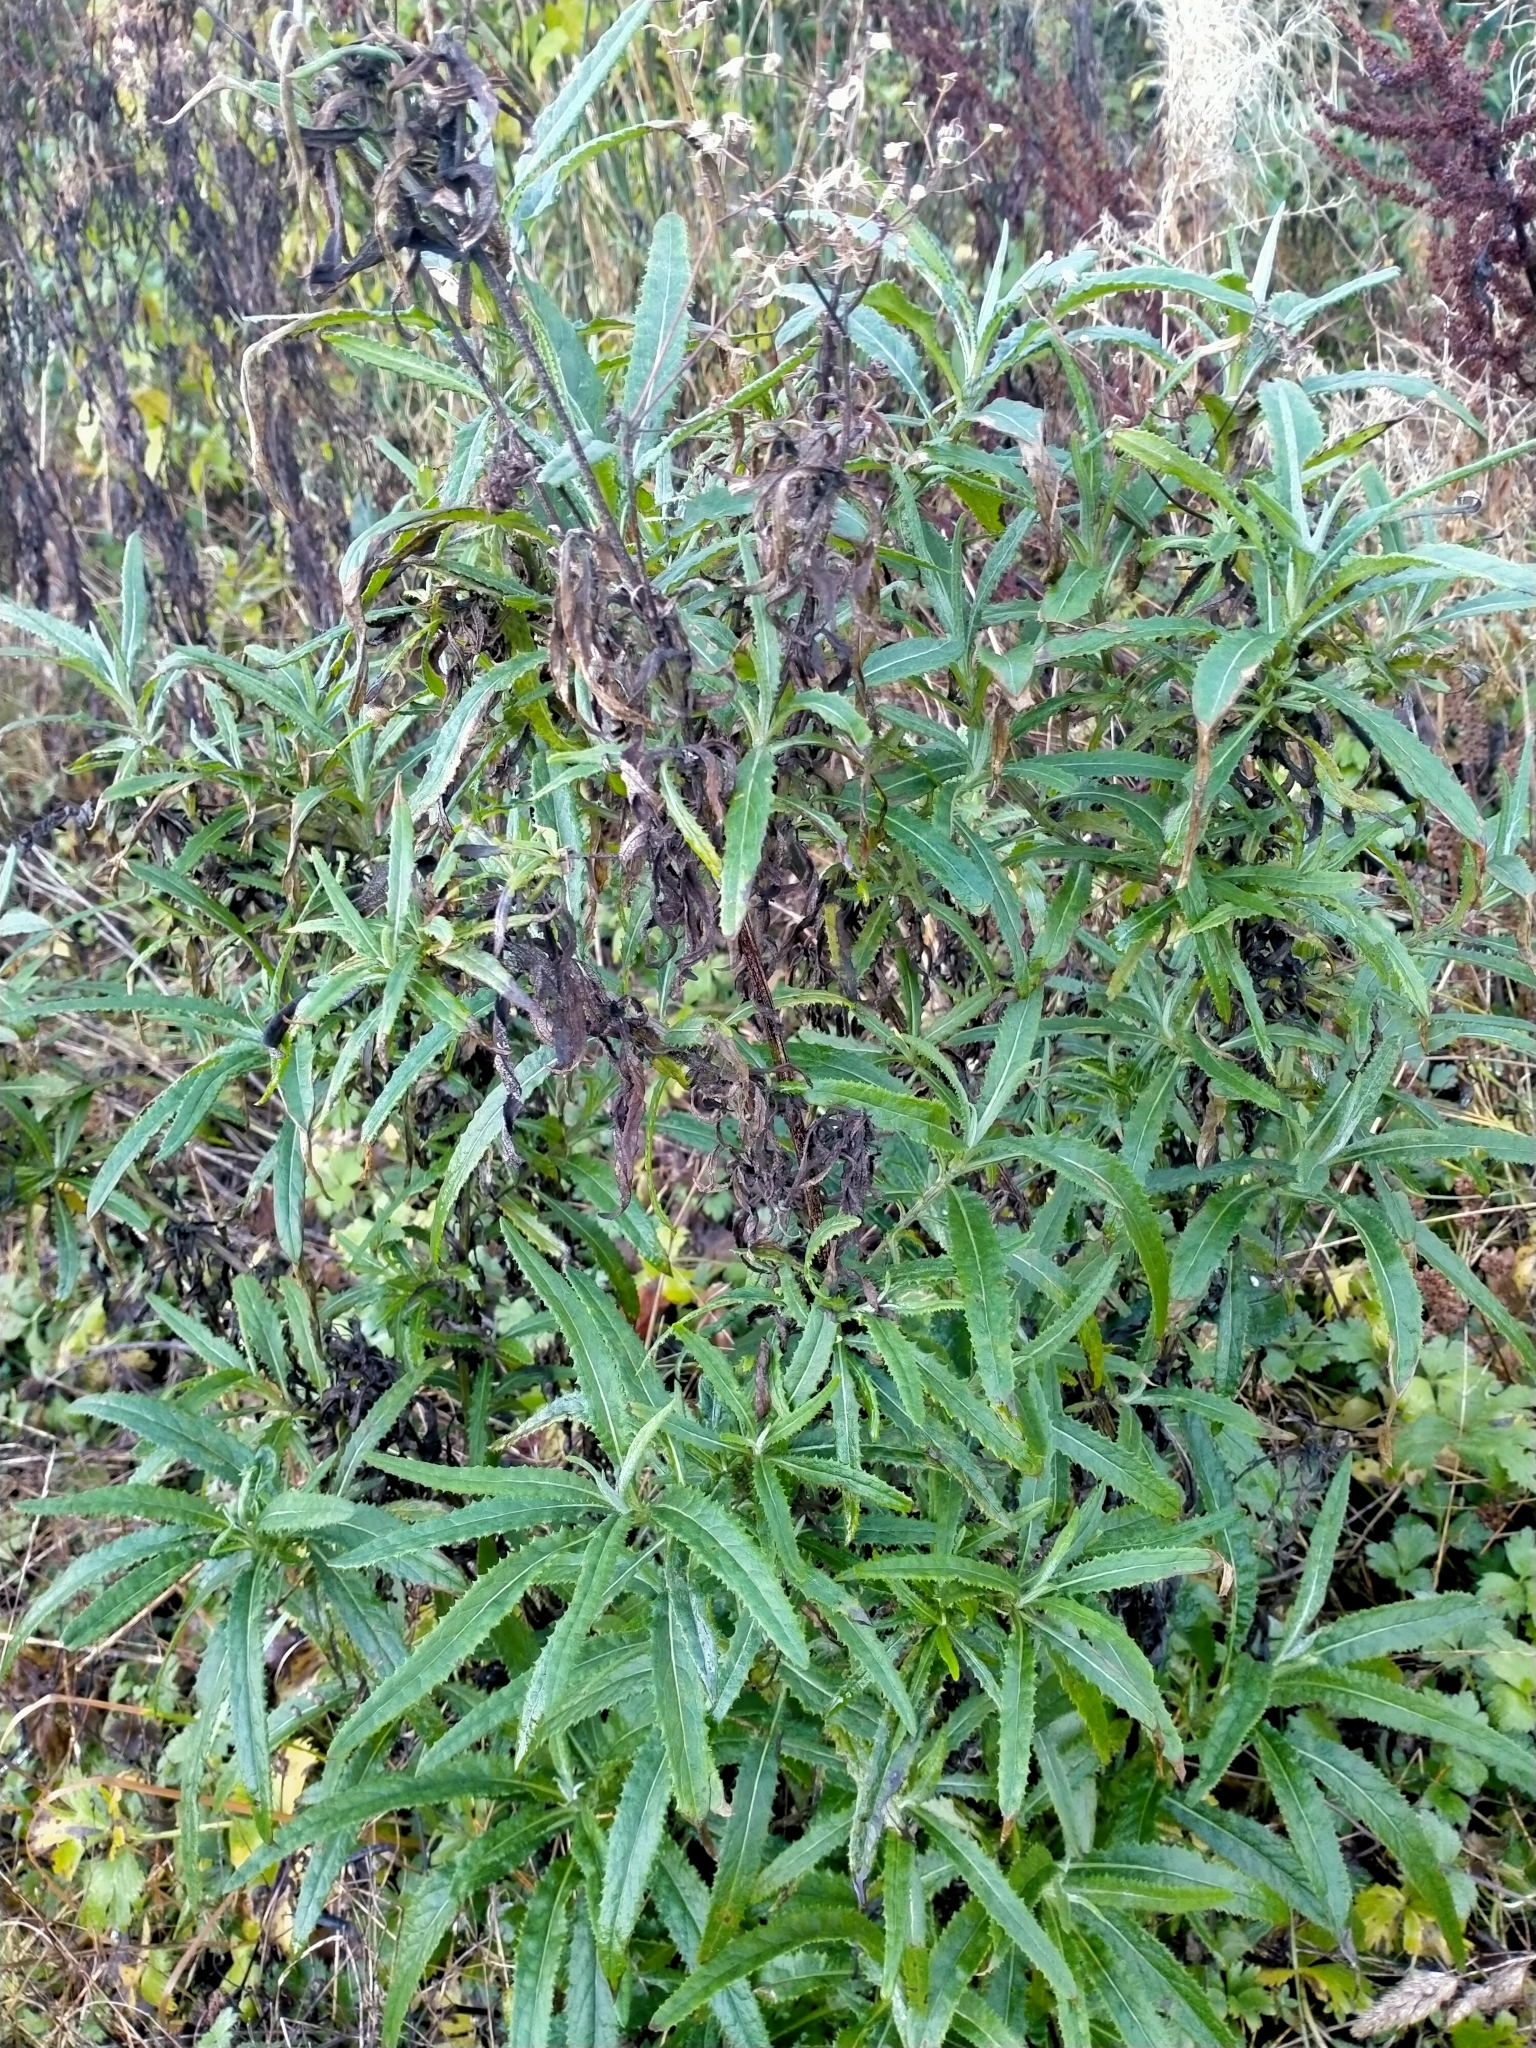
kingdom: Plantae
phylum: Tracheophyta
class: Magnoliopsida
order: Asterales
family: Asteraceae
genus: Senecio
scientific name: Senecio minimus
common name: Toothed fireweed
